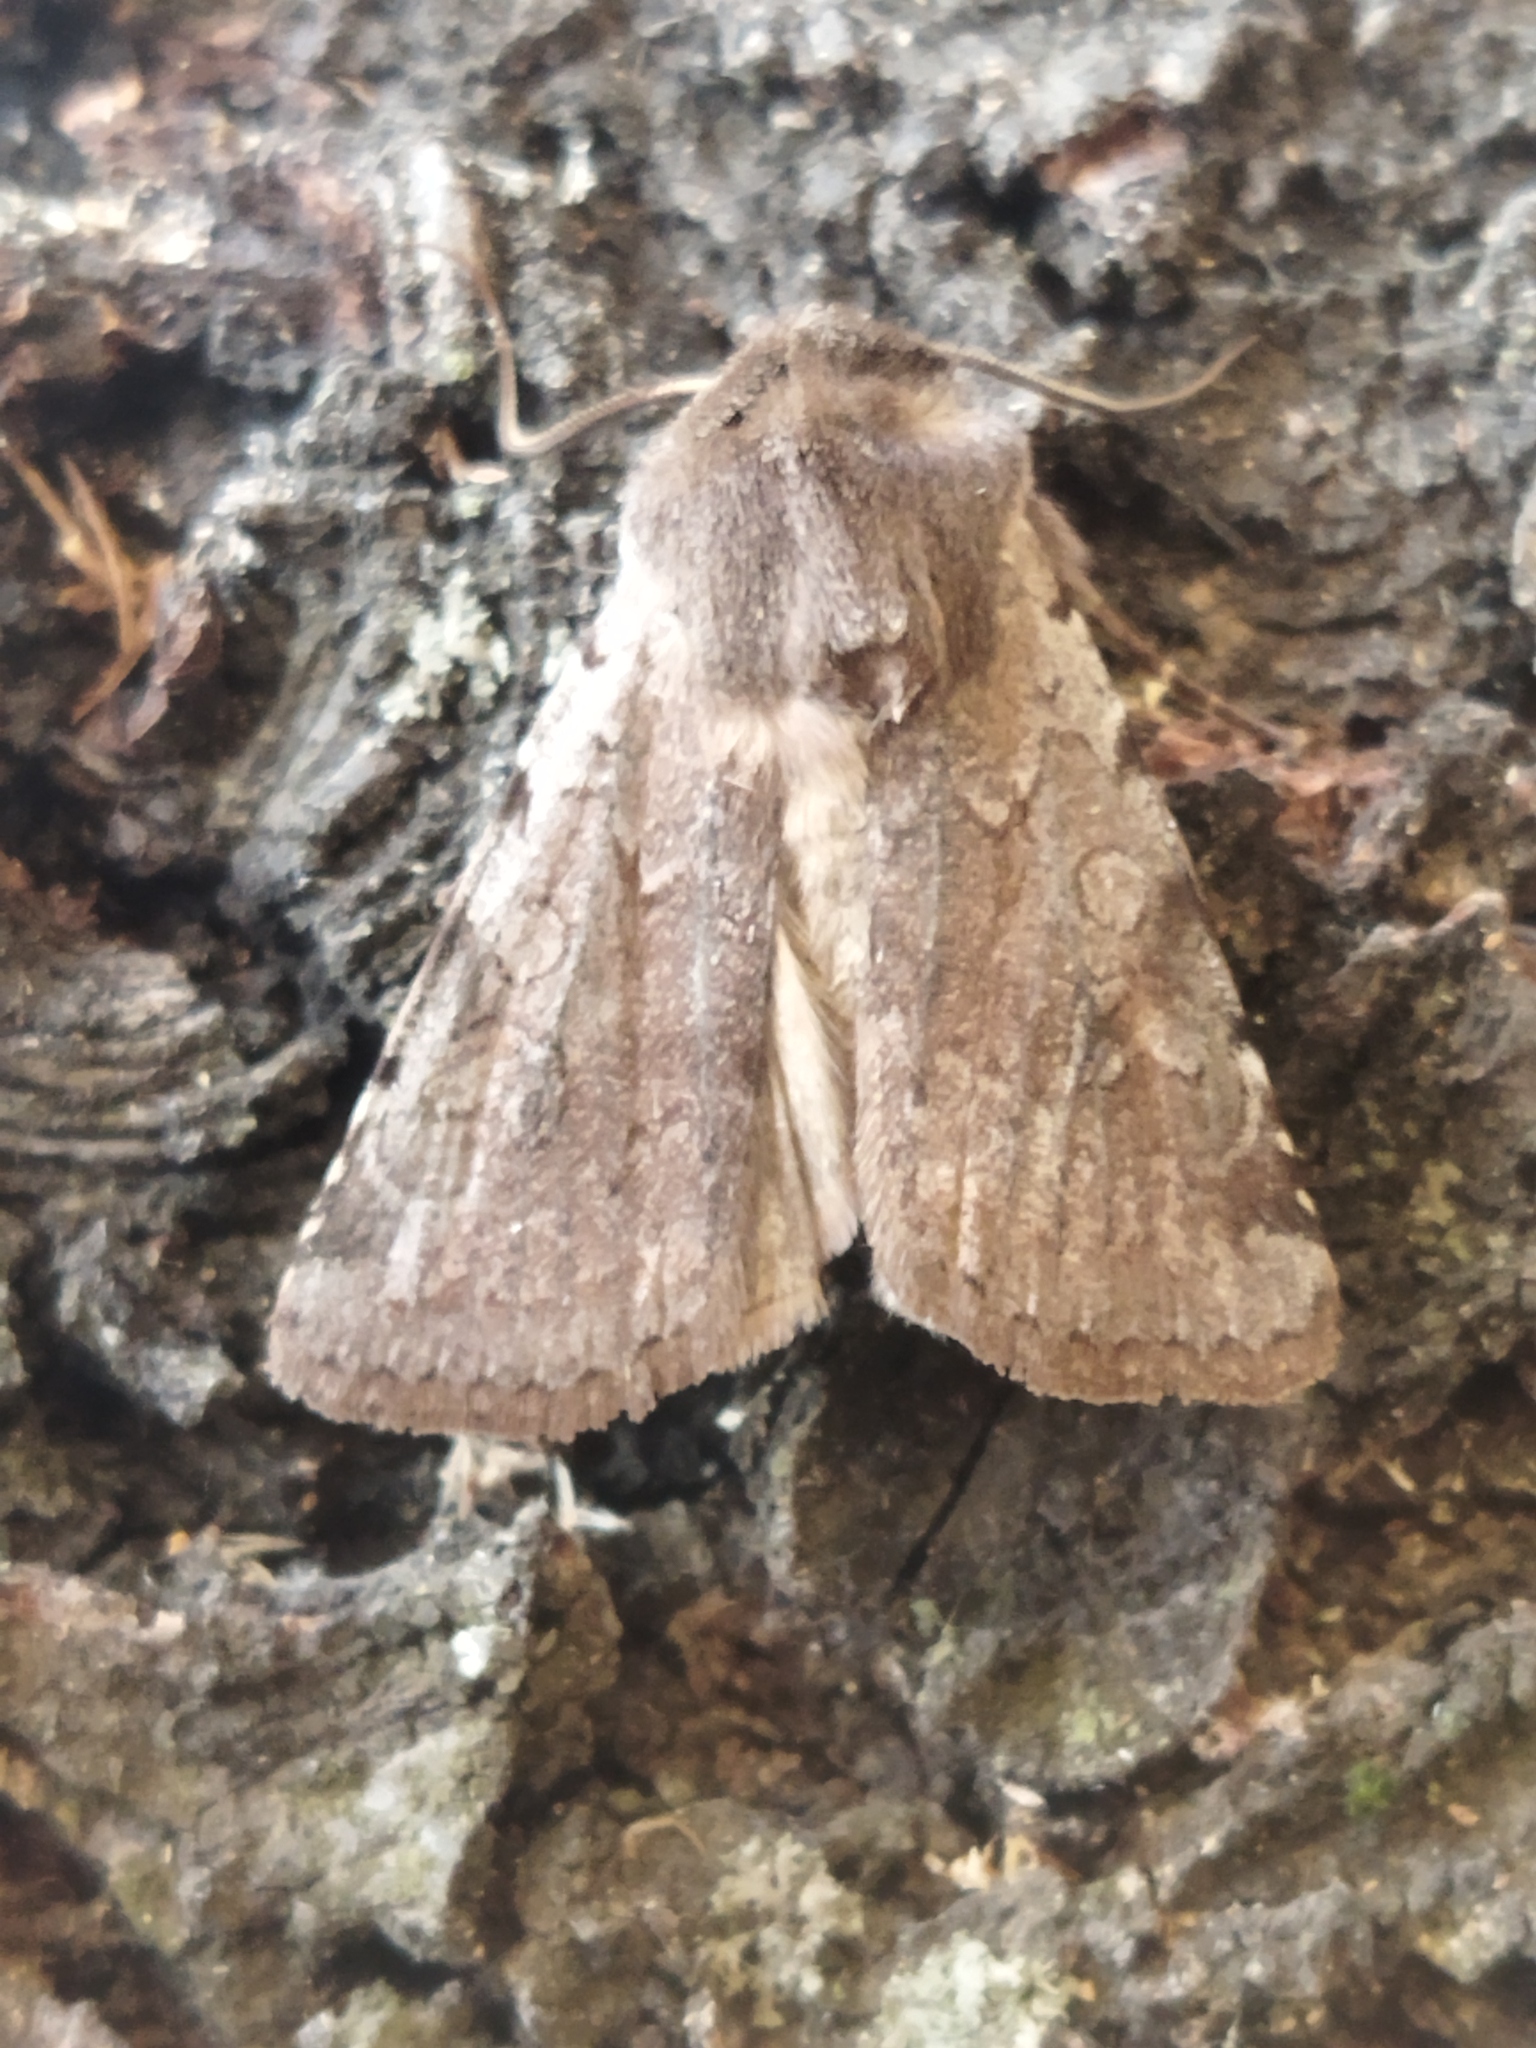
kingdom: Animalia
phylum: Arthropoda
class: Insecta
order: Lepidoptera
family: Noctuidae
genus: Cerastis
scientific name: Cerastis rubricosa
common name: Red chestnut
